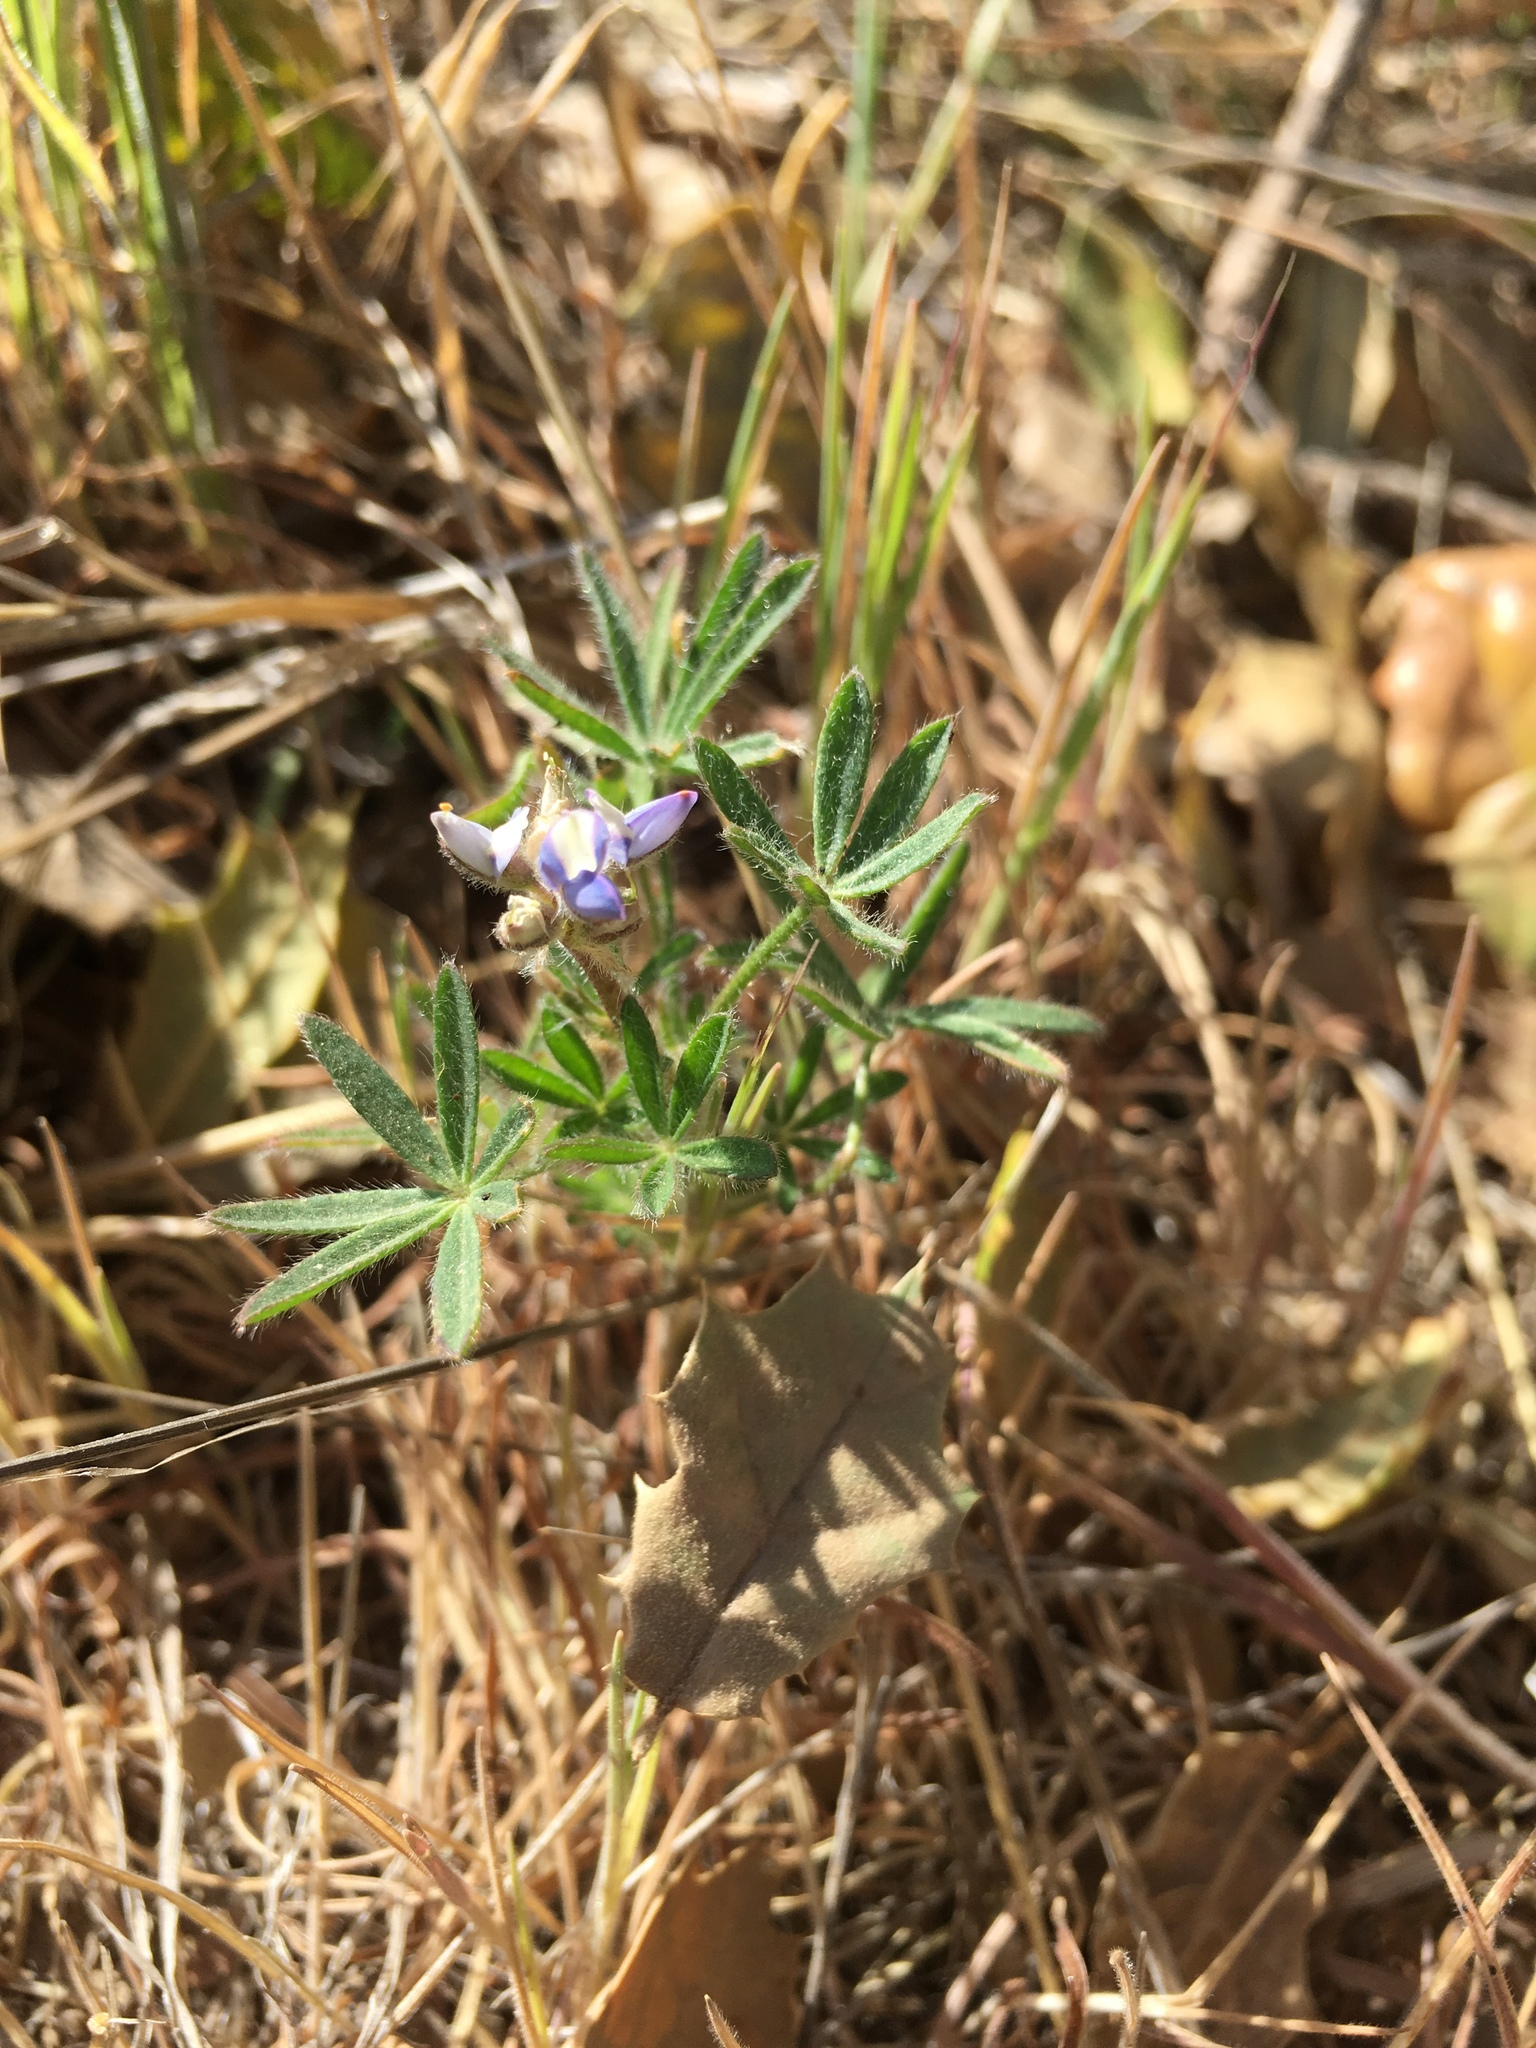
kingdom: Plantae
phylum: Tracheophyta
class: Magnoliopsida
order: Fabales
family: Fabaceae
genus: Lupinus
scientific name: Lupinus bicolor
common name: Miniature lupine
